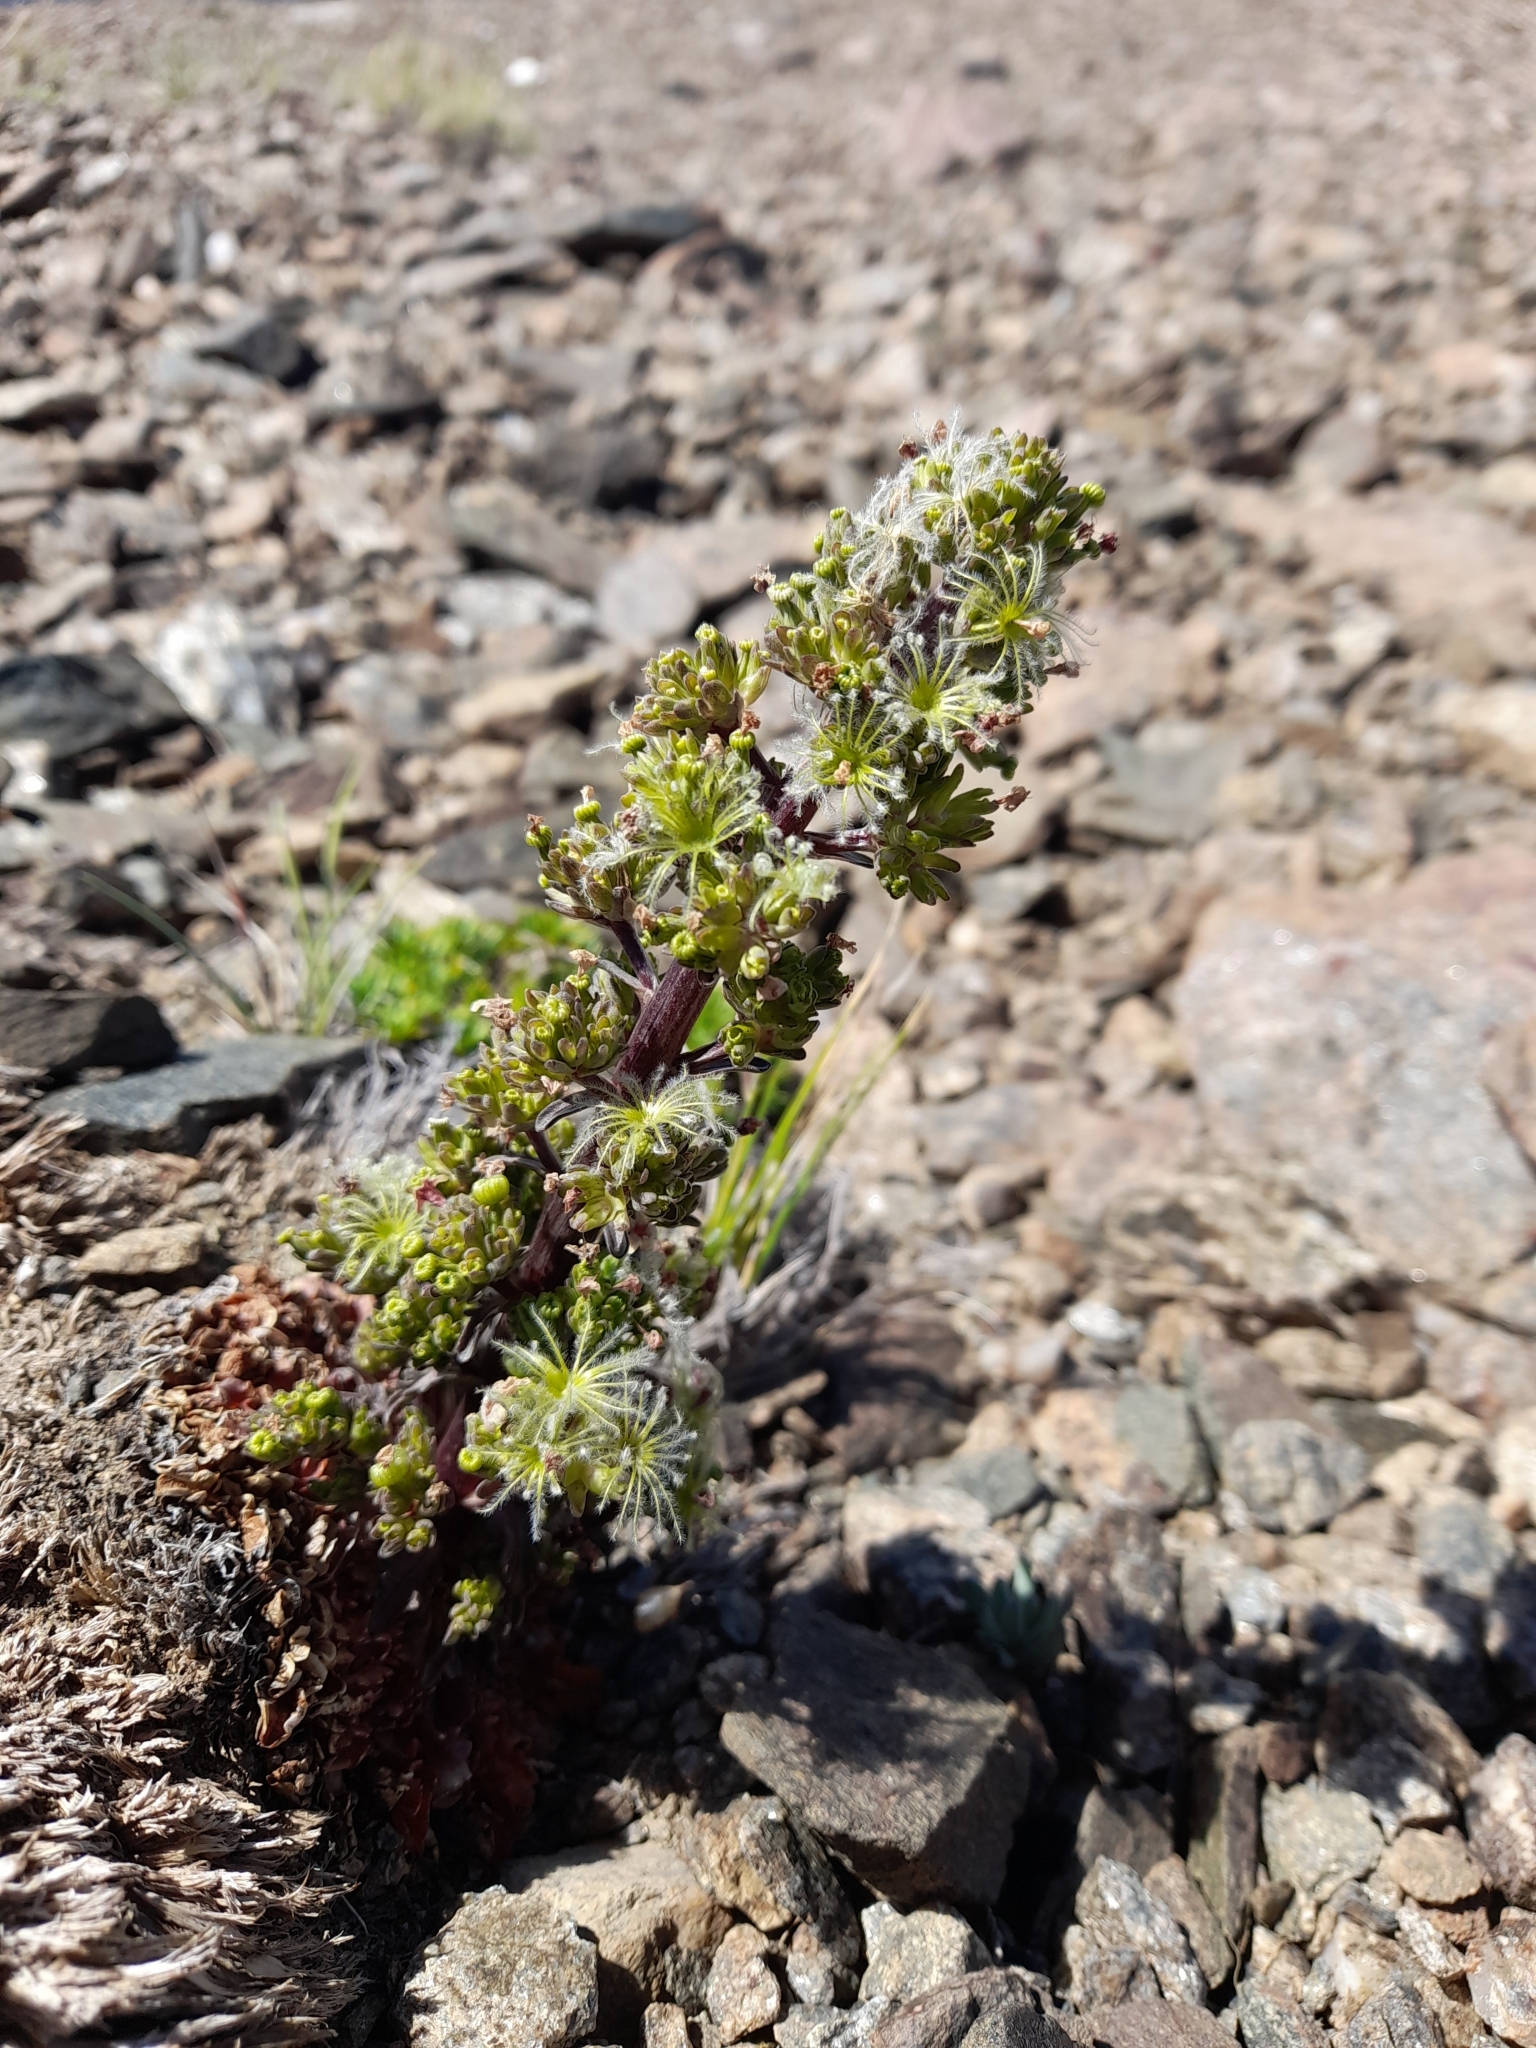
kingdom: Plantae
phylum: Tracheophyta
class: Magnoliopsida
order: Dipsacales
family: Caprifoliaceae
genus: Valeriana
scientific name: Valeriana moyanoi
